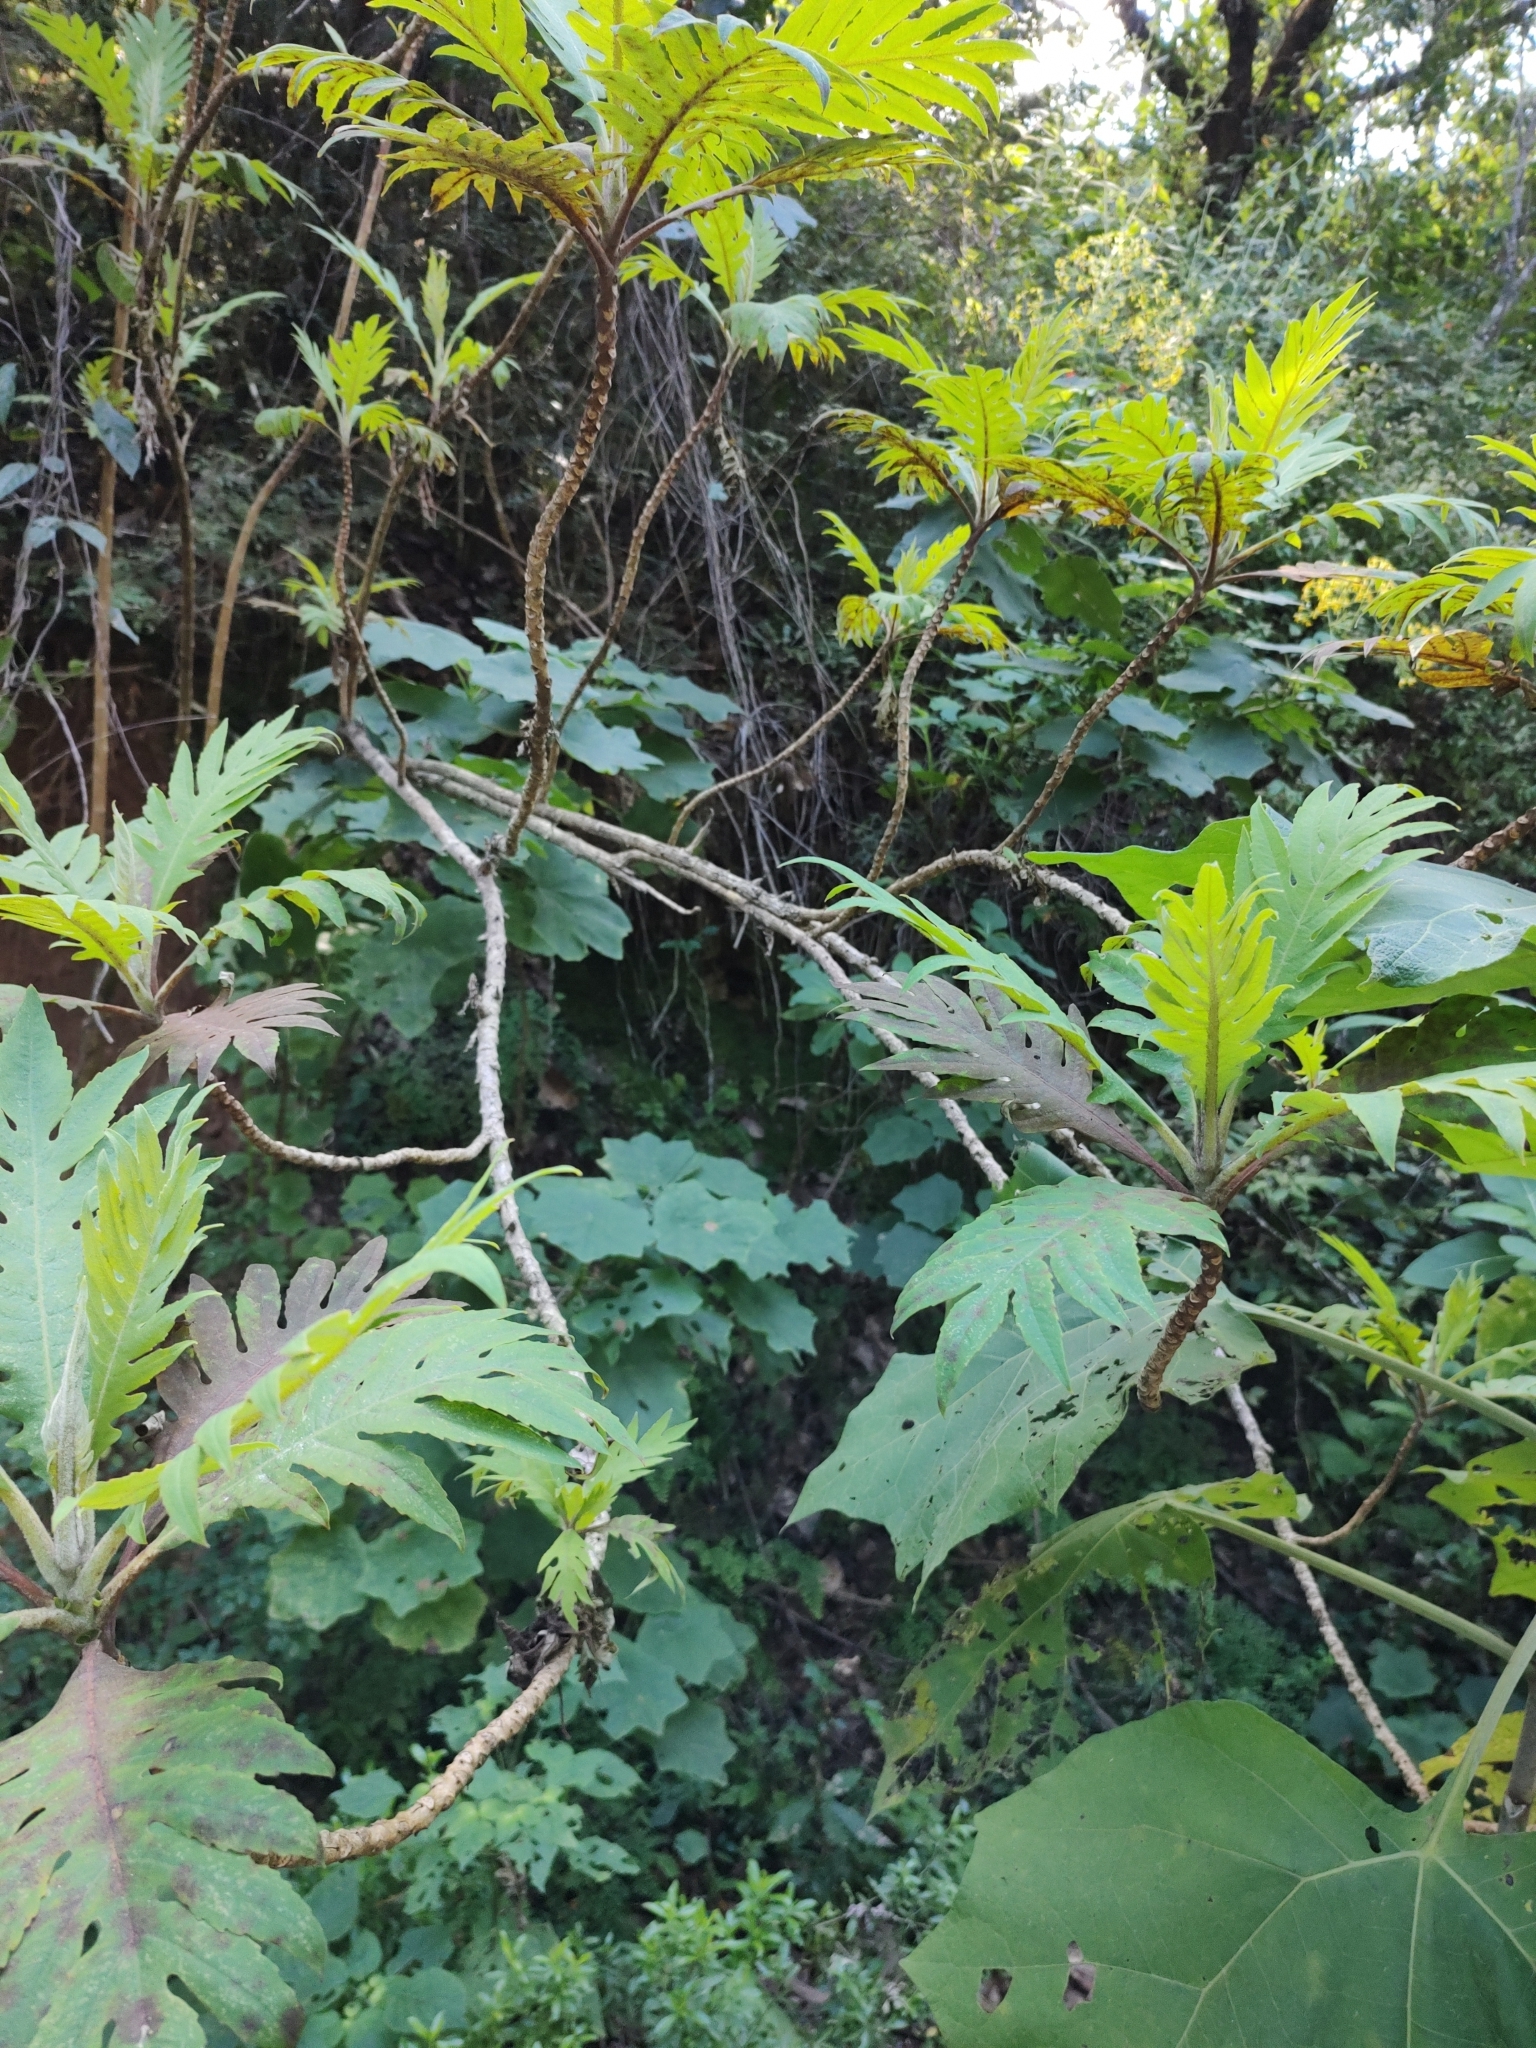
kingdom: Plantae
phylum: Tracheophyta
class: Magnoliopsida
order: Ranunculales
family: Papaveraceae
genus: Bocconia
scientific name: Bocconia arborea
